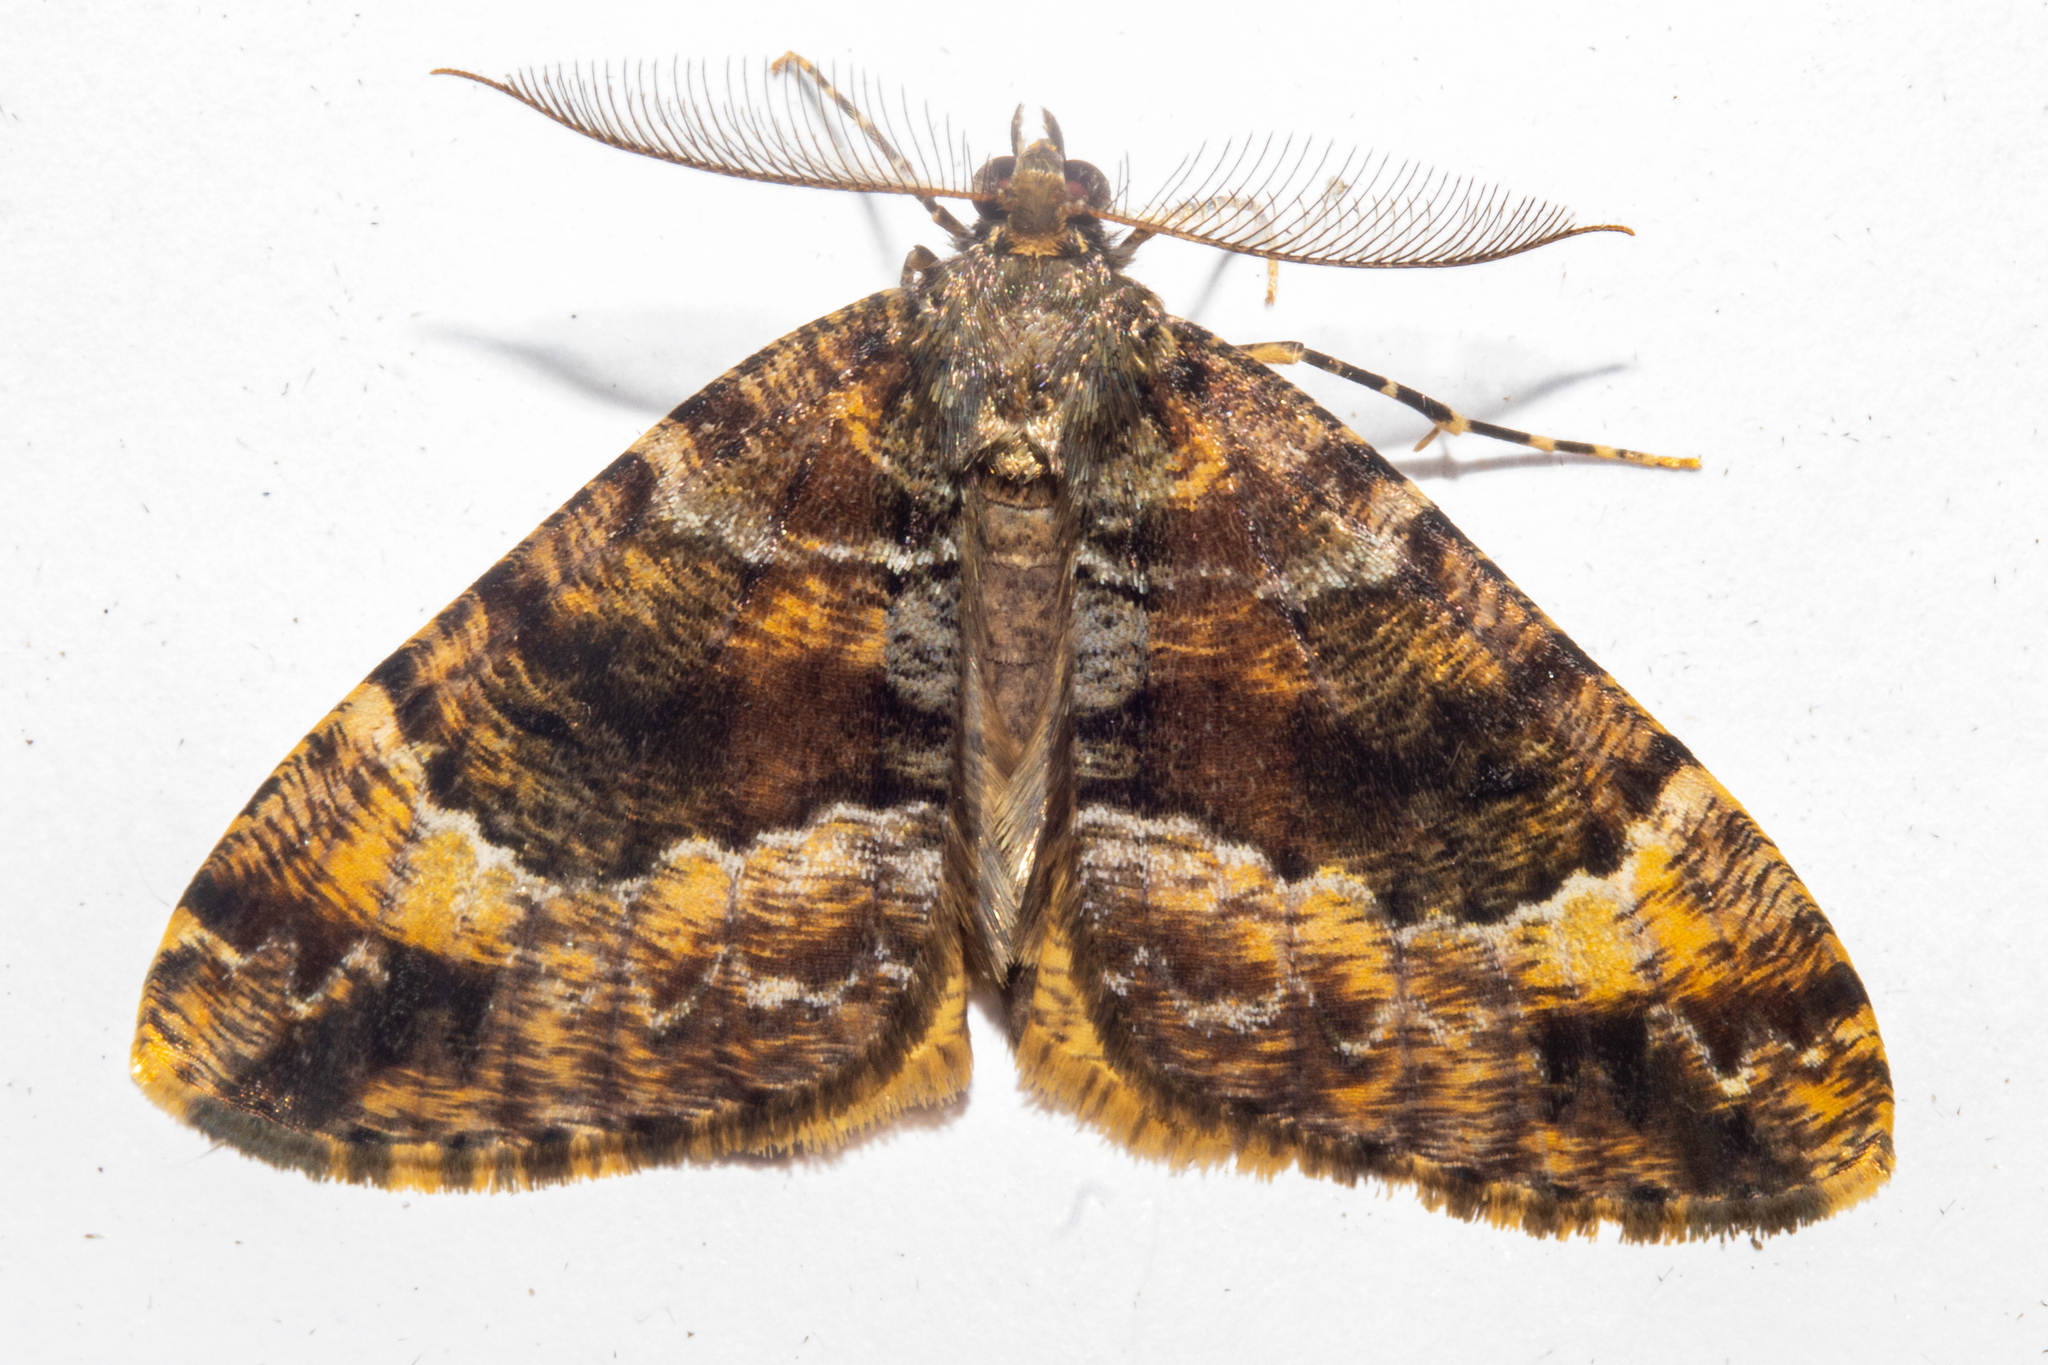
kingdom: Animalia
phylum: Arthropoda
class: Insecta
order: Lepidoptera
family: Geometridae
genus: Pseudocoremia
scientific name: Pseudocoremia productata
